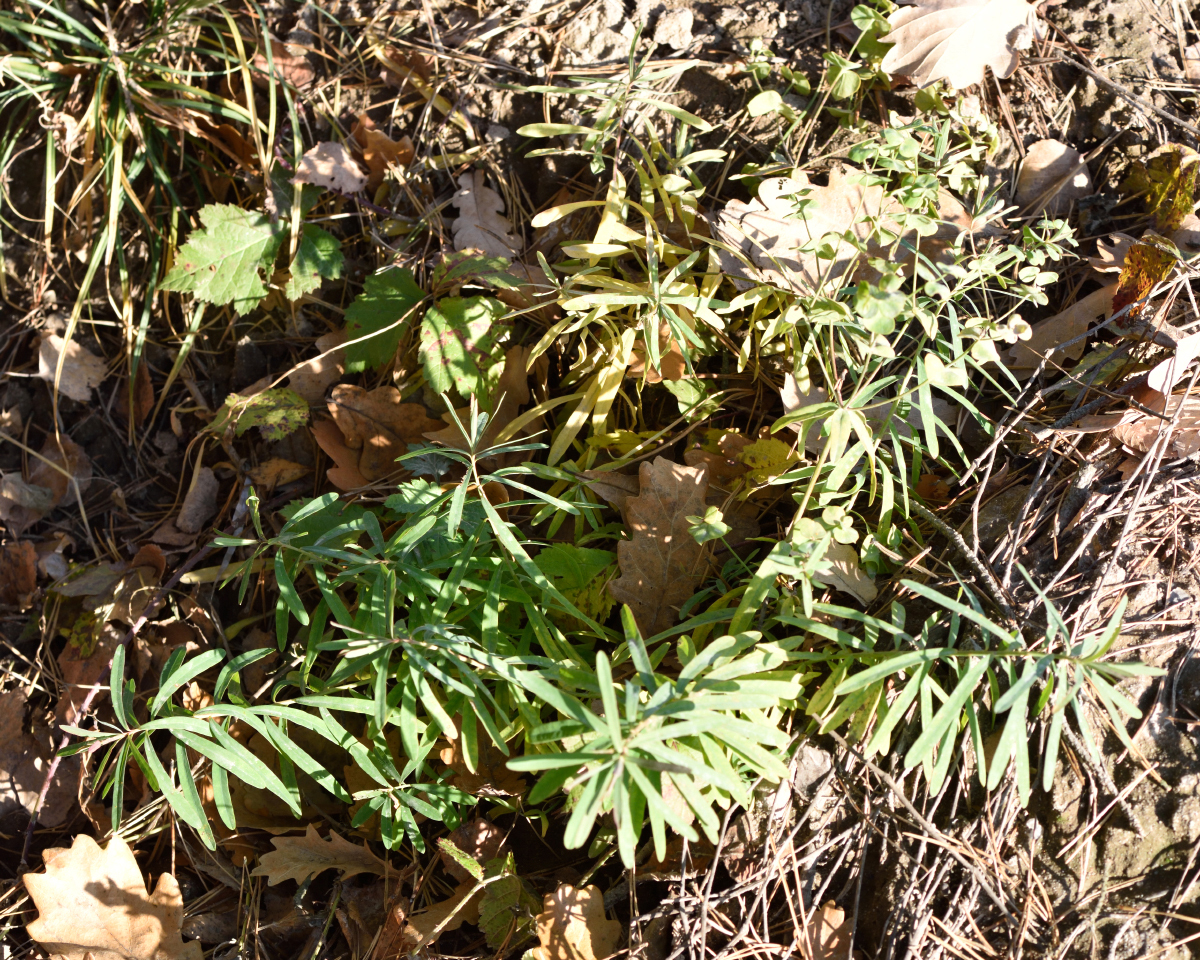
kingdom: Plantae
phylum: Tracheophyta
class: Magnoliopsida
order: Malpighiales
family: Euphorbiaceae
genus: Euphorbia
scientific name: Euphorbia virgata
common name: Leafy spurge
